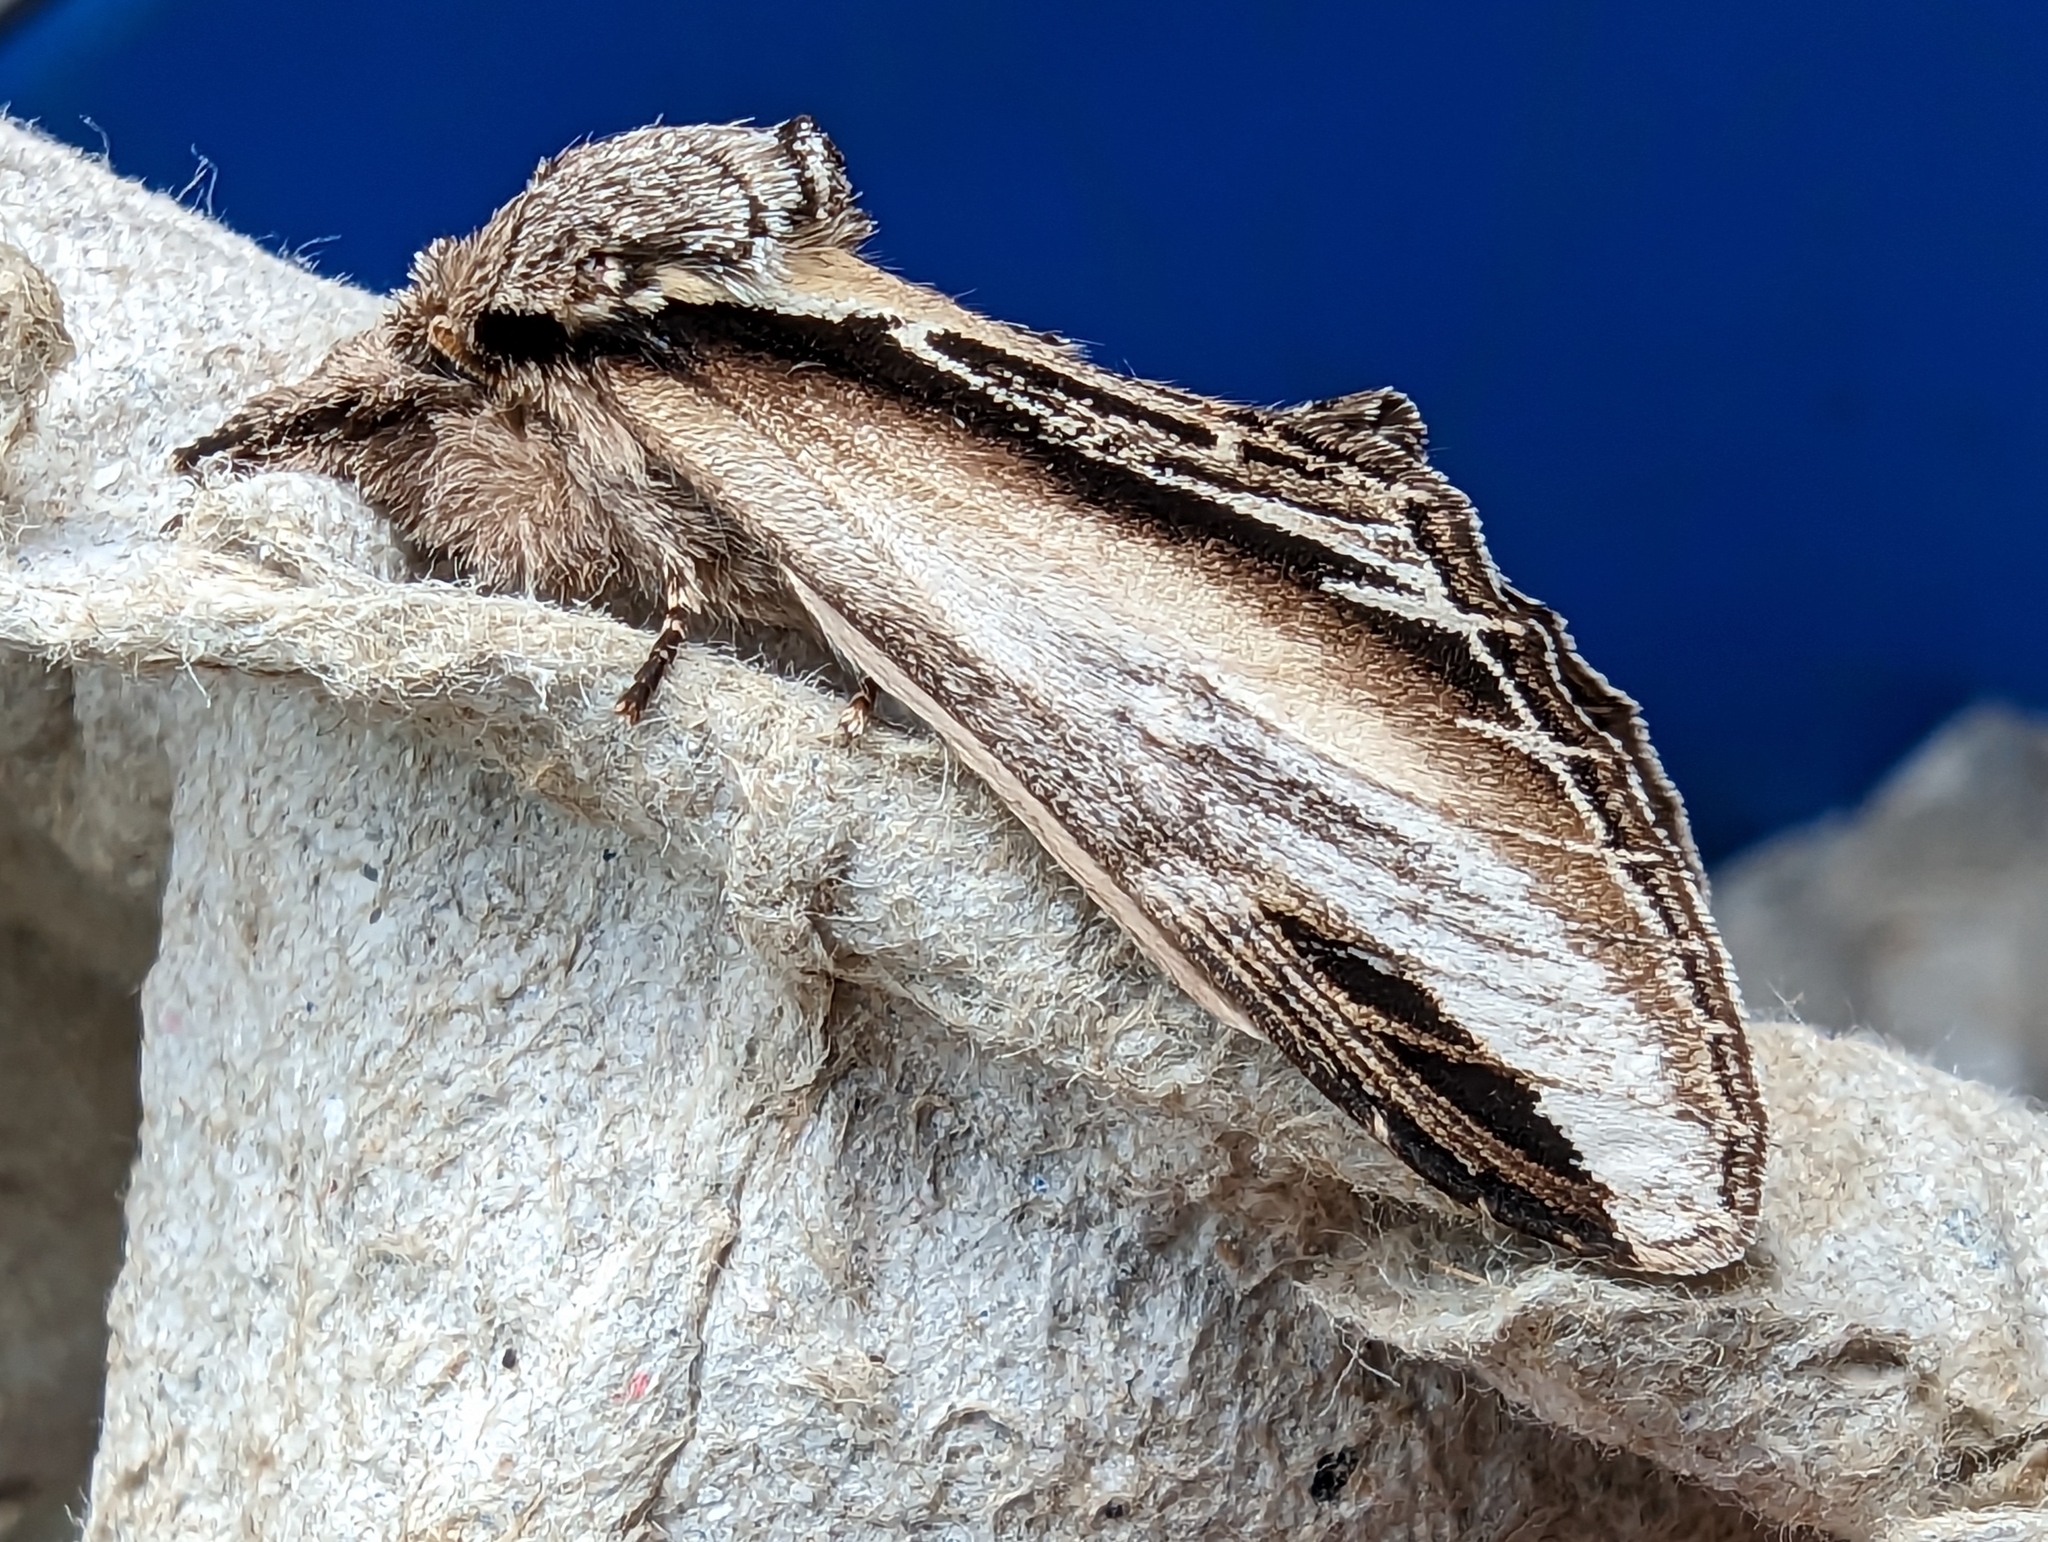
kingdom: Animalia
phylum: Arthropoda
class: Insecta
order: Lepidoptera
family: Notodontidae
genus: Pheosia
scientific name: Pheosia tremula
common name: Swallow prominent
